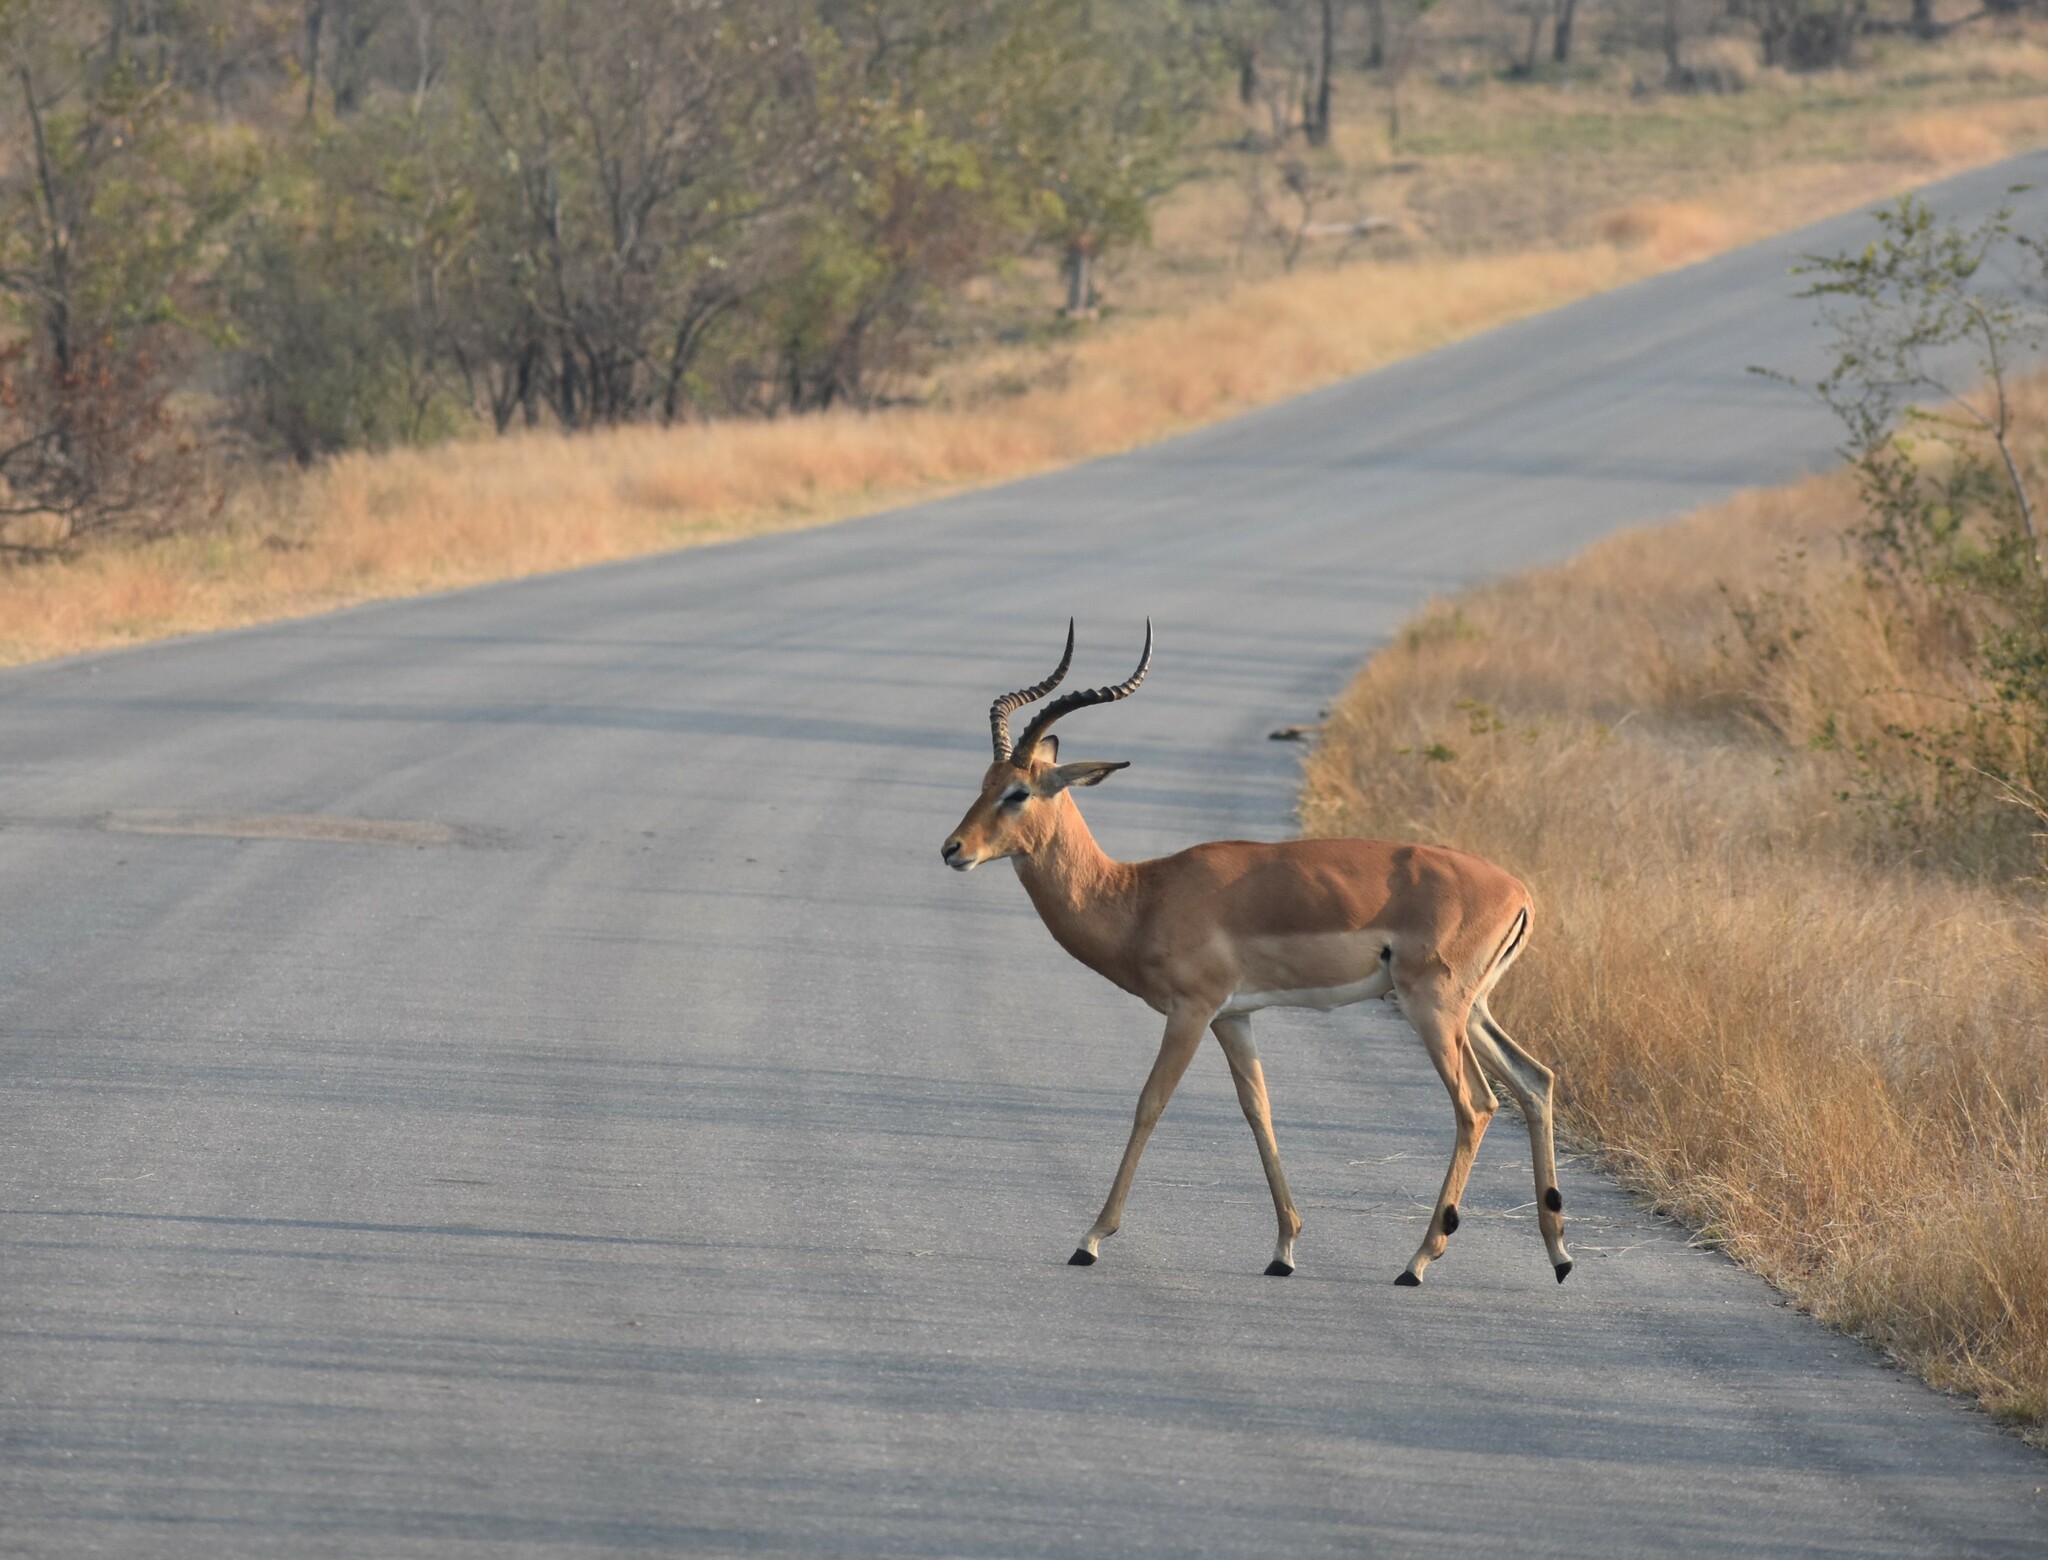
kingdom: Animalia
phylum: Chordata
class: Mammalia
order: Artiodactyla
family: Bovidae
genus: Aepyceros
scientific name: Aepyceros melampus
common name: Impala
